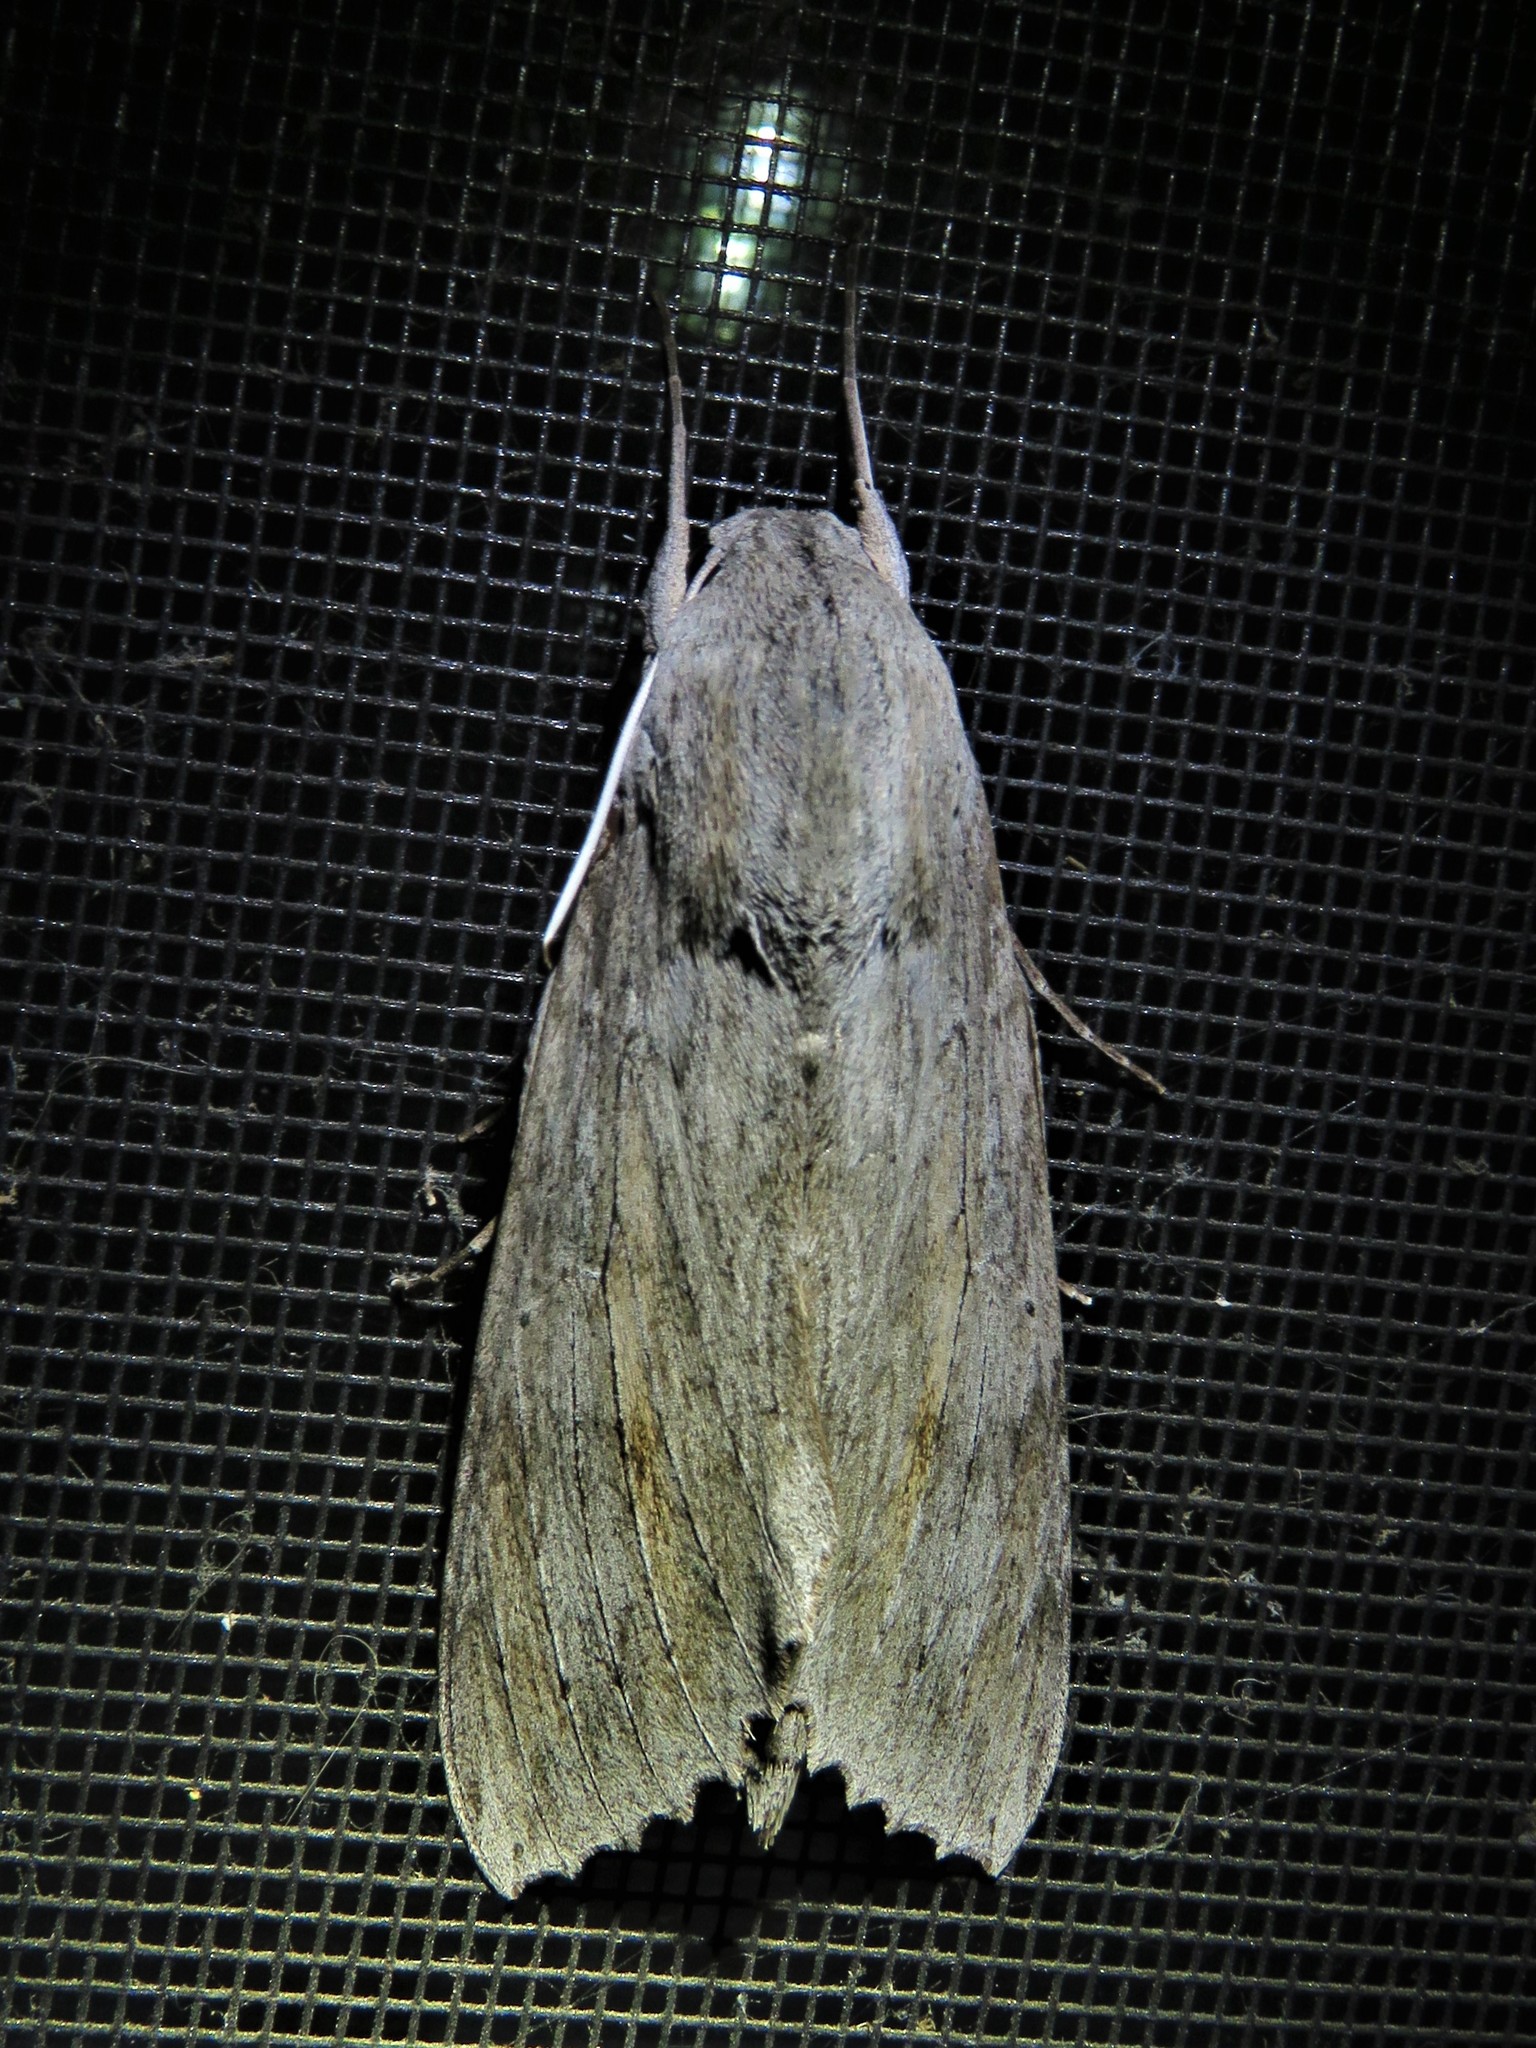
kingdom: Animalia
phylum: Arthropoda
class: Insecta
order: Lepidoptera
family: Sphingidae
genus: Erinnyis
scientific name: Erinnyis ello
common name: Ello sphinx
